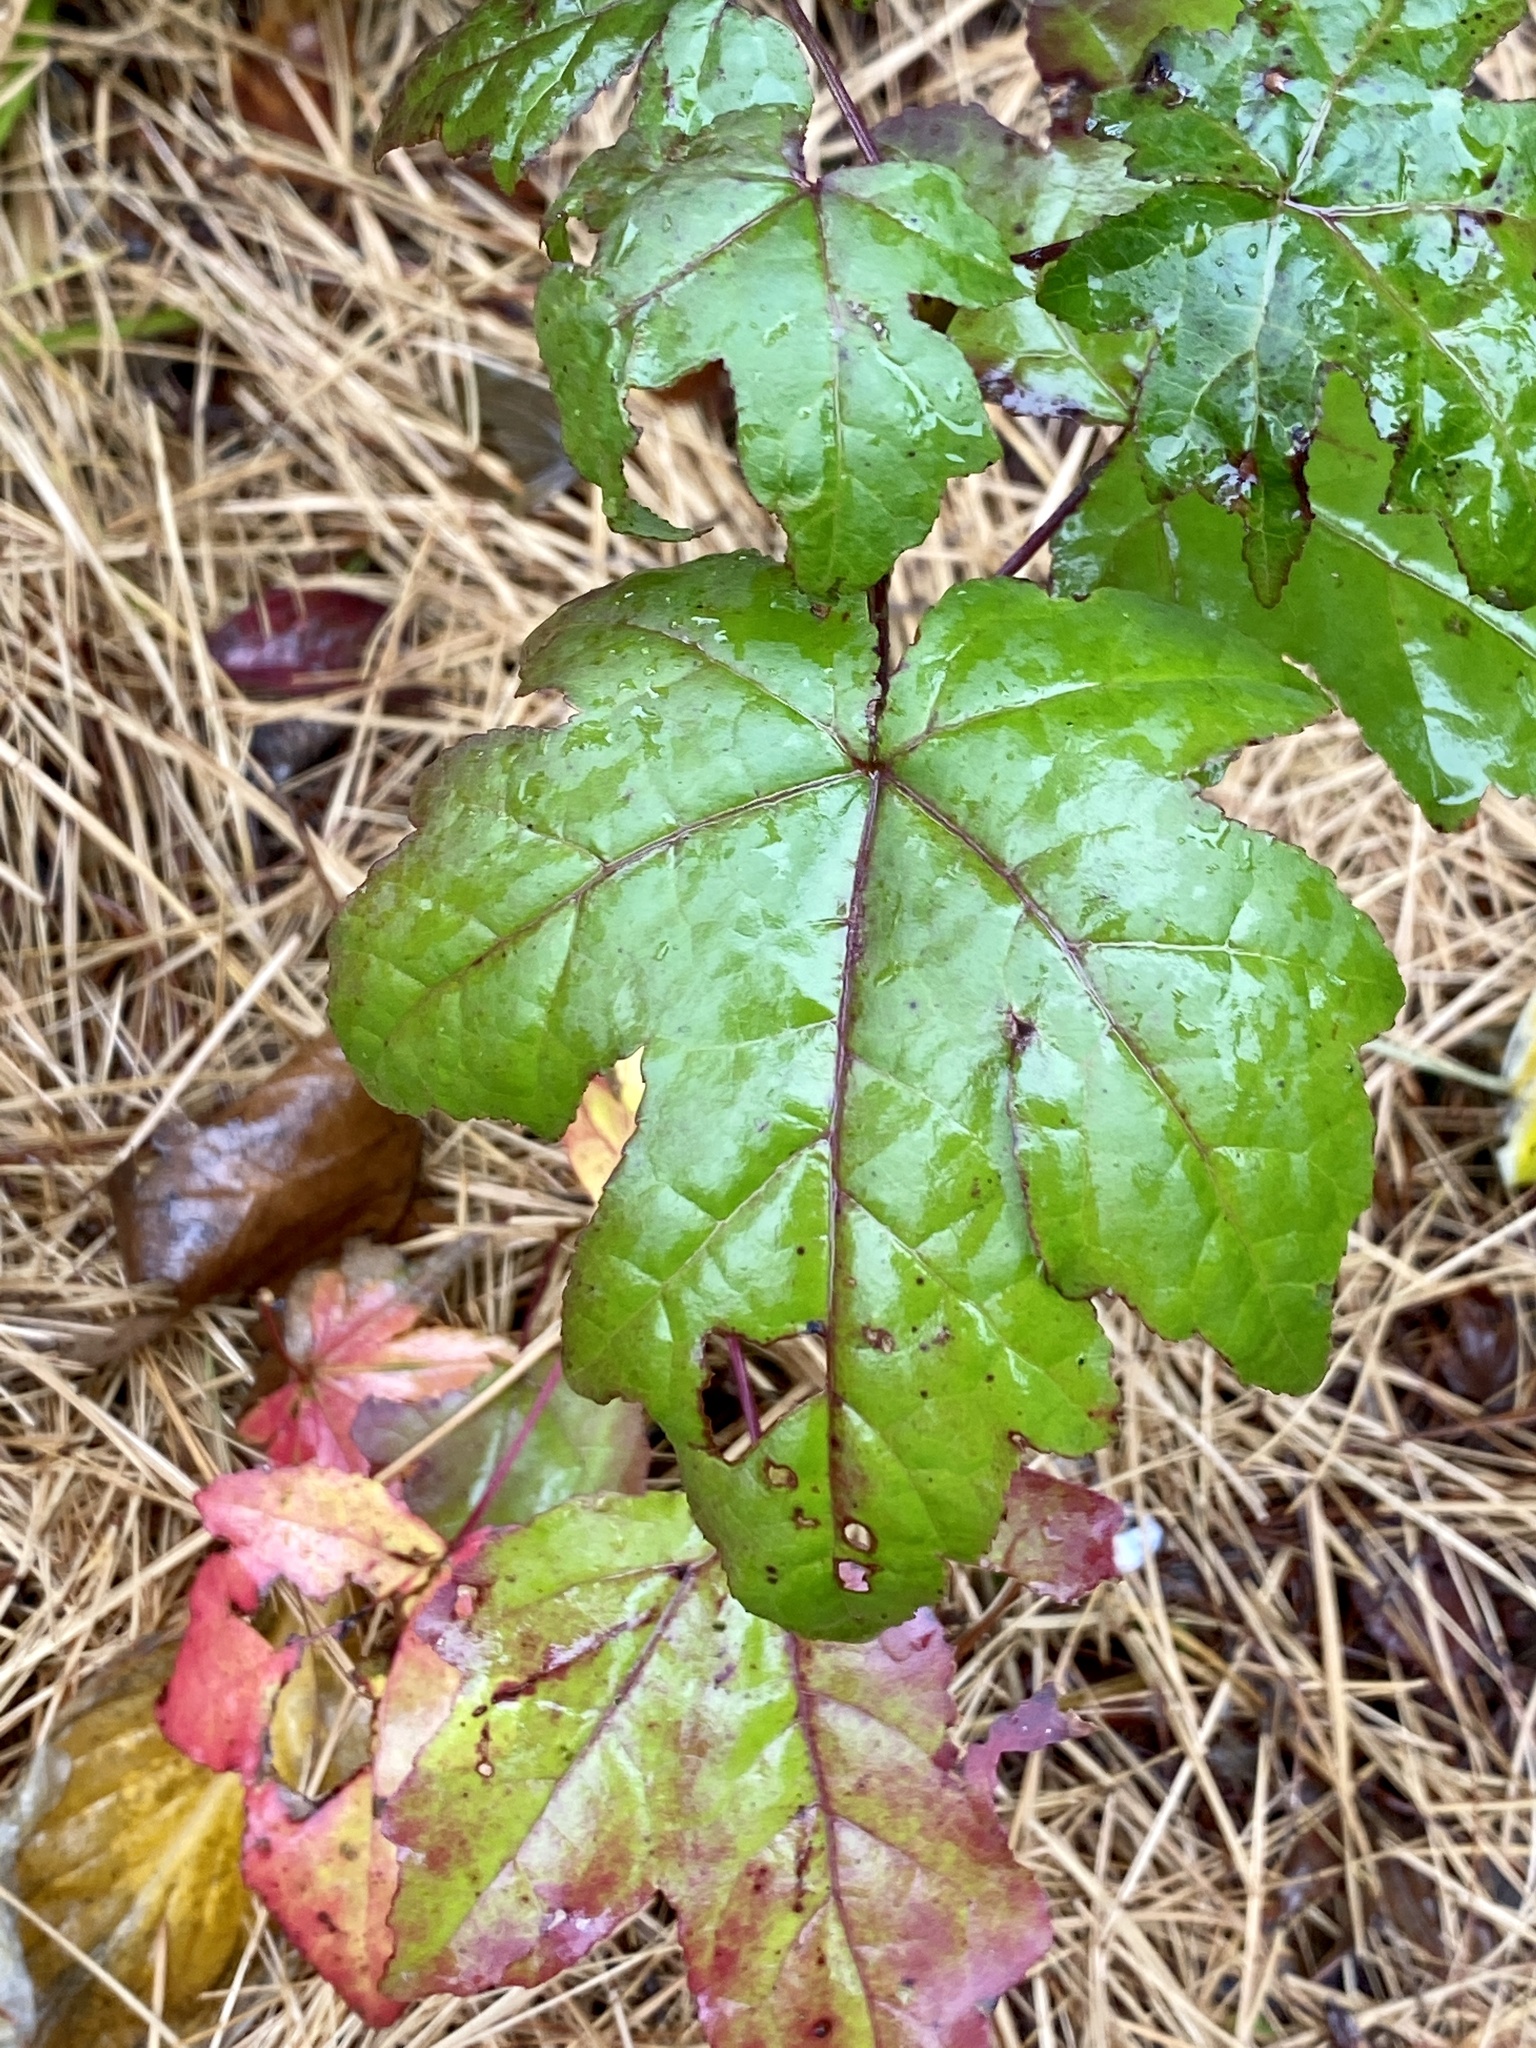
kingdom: Plantae
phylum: Tracheophyta
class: Magnoliopsida
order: Saxifragales
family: Altingiaceae
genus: Liquidambar
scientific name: Liquidambar styraciflua
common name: Sweet gum
